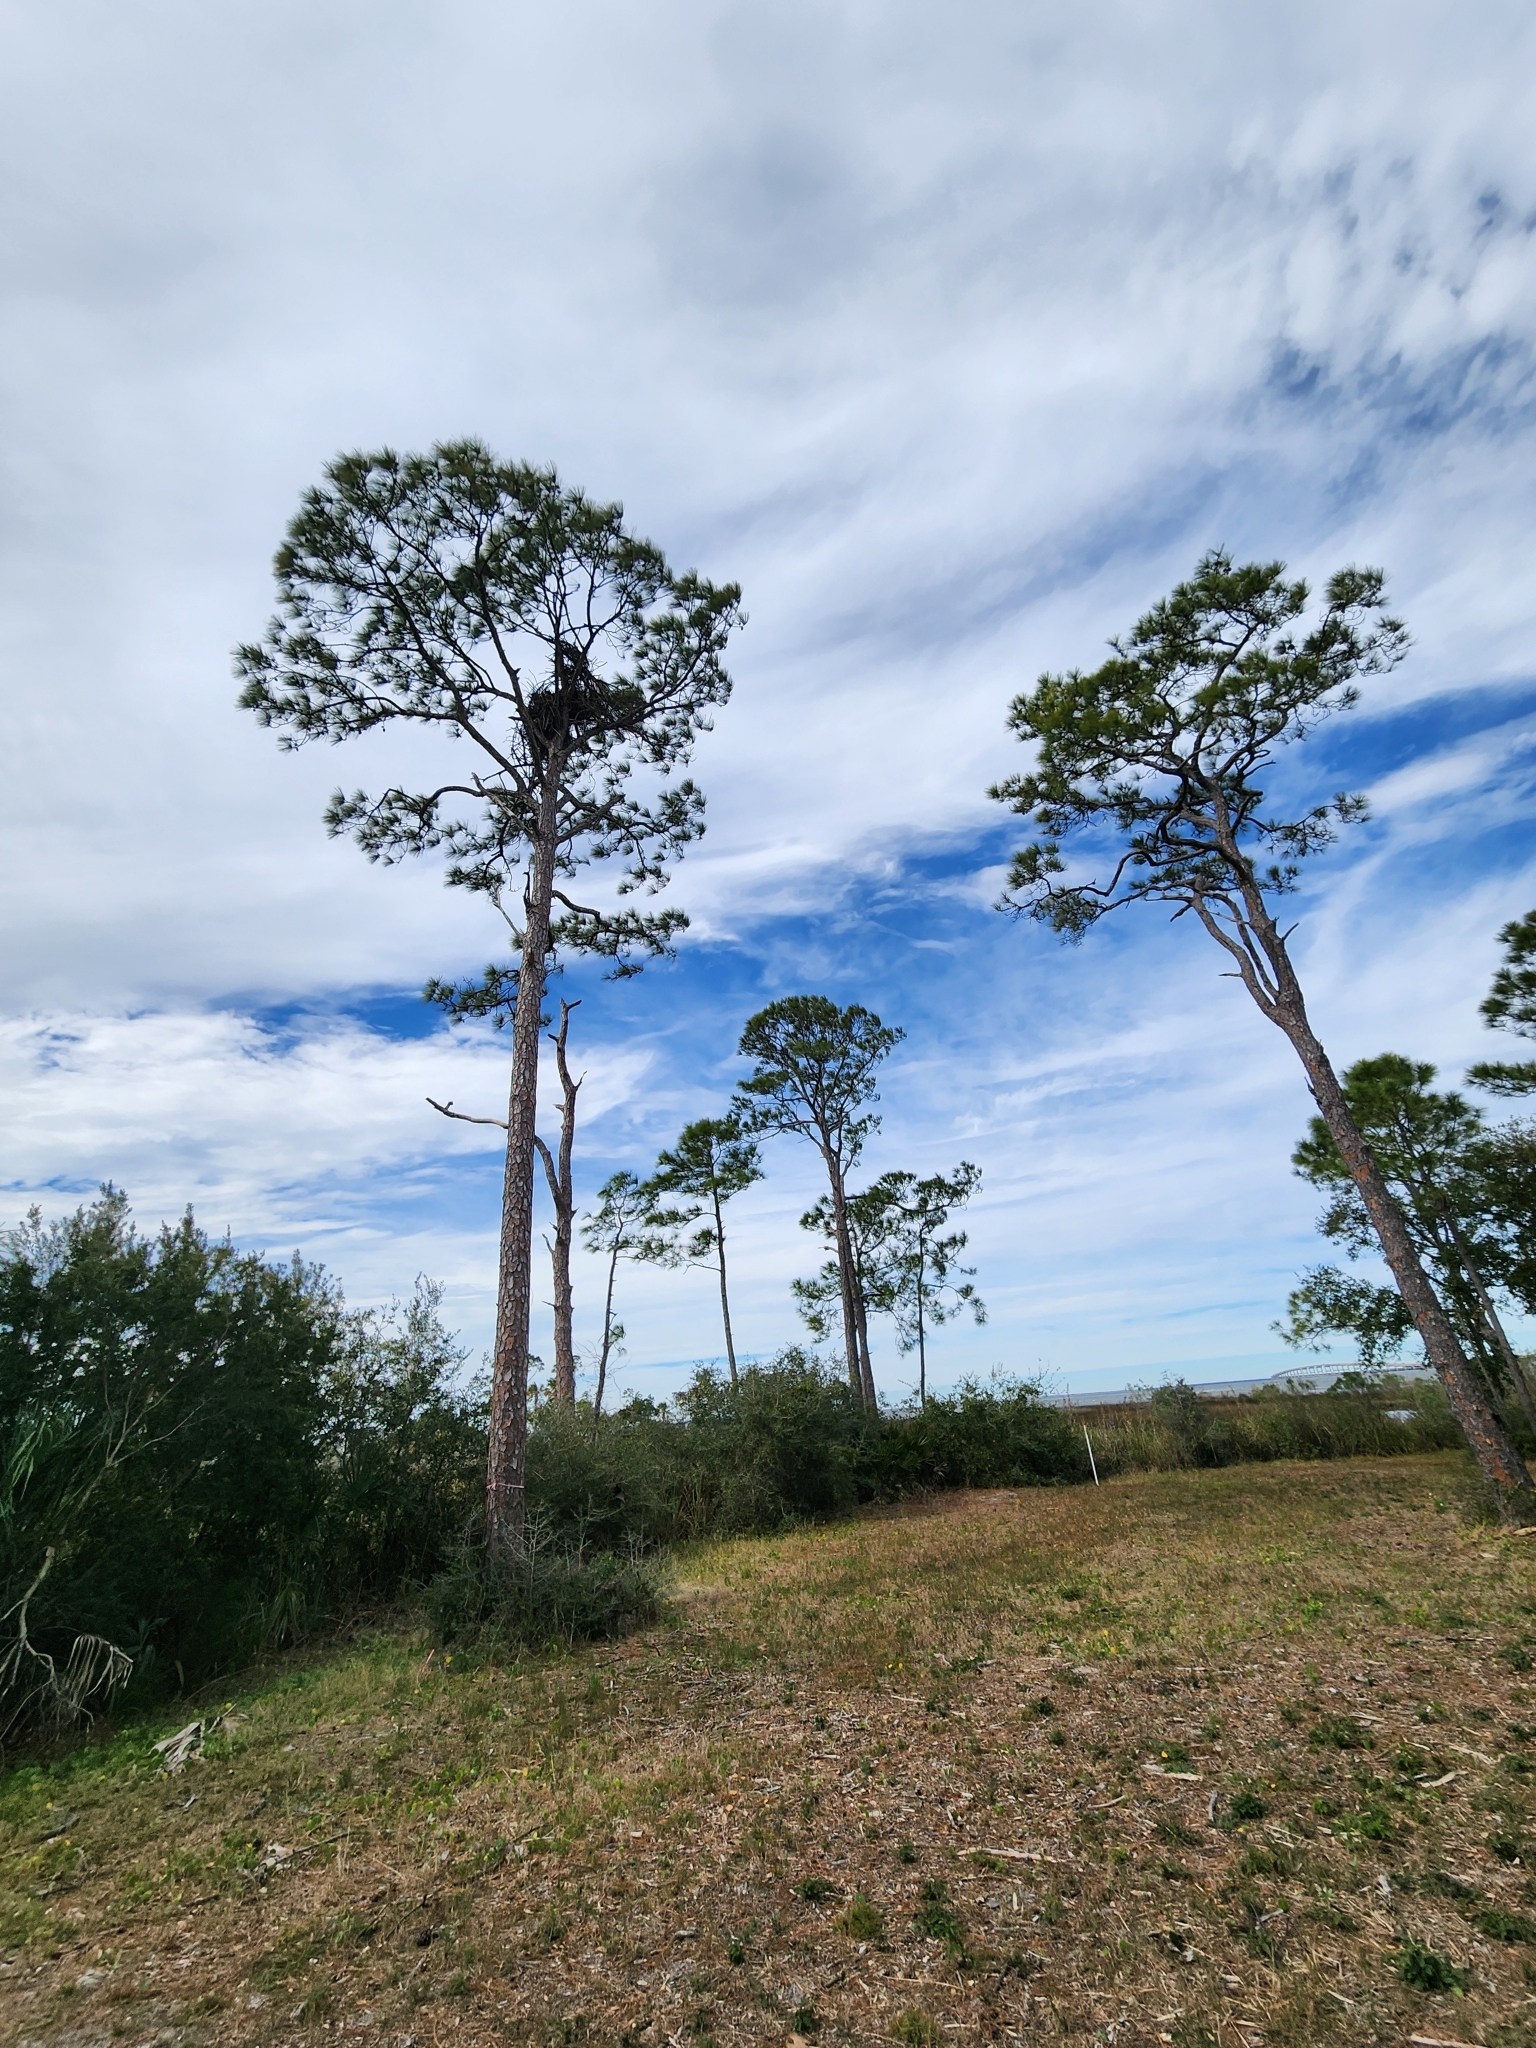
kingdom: Animalia
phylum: Chordata
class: Aves
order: Strigiformes
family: Strigidae
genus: Bubo
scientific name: Bubo virginianus
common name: Great horned owl
